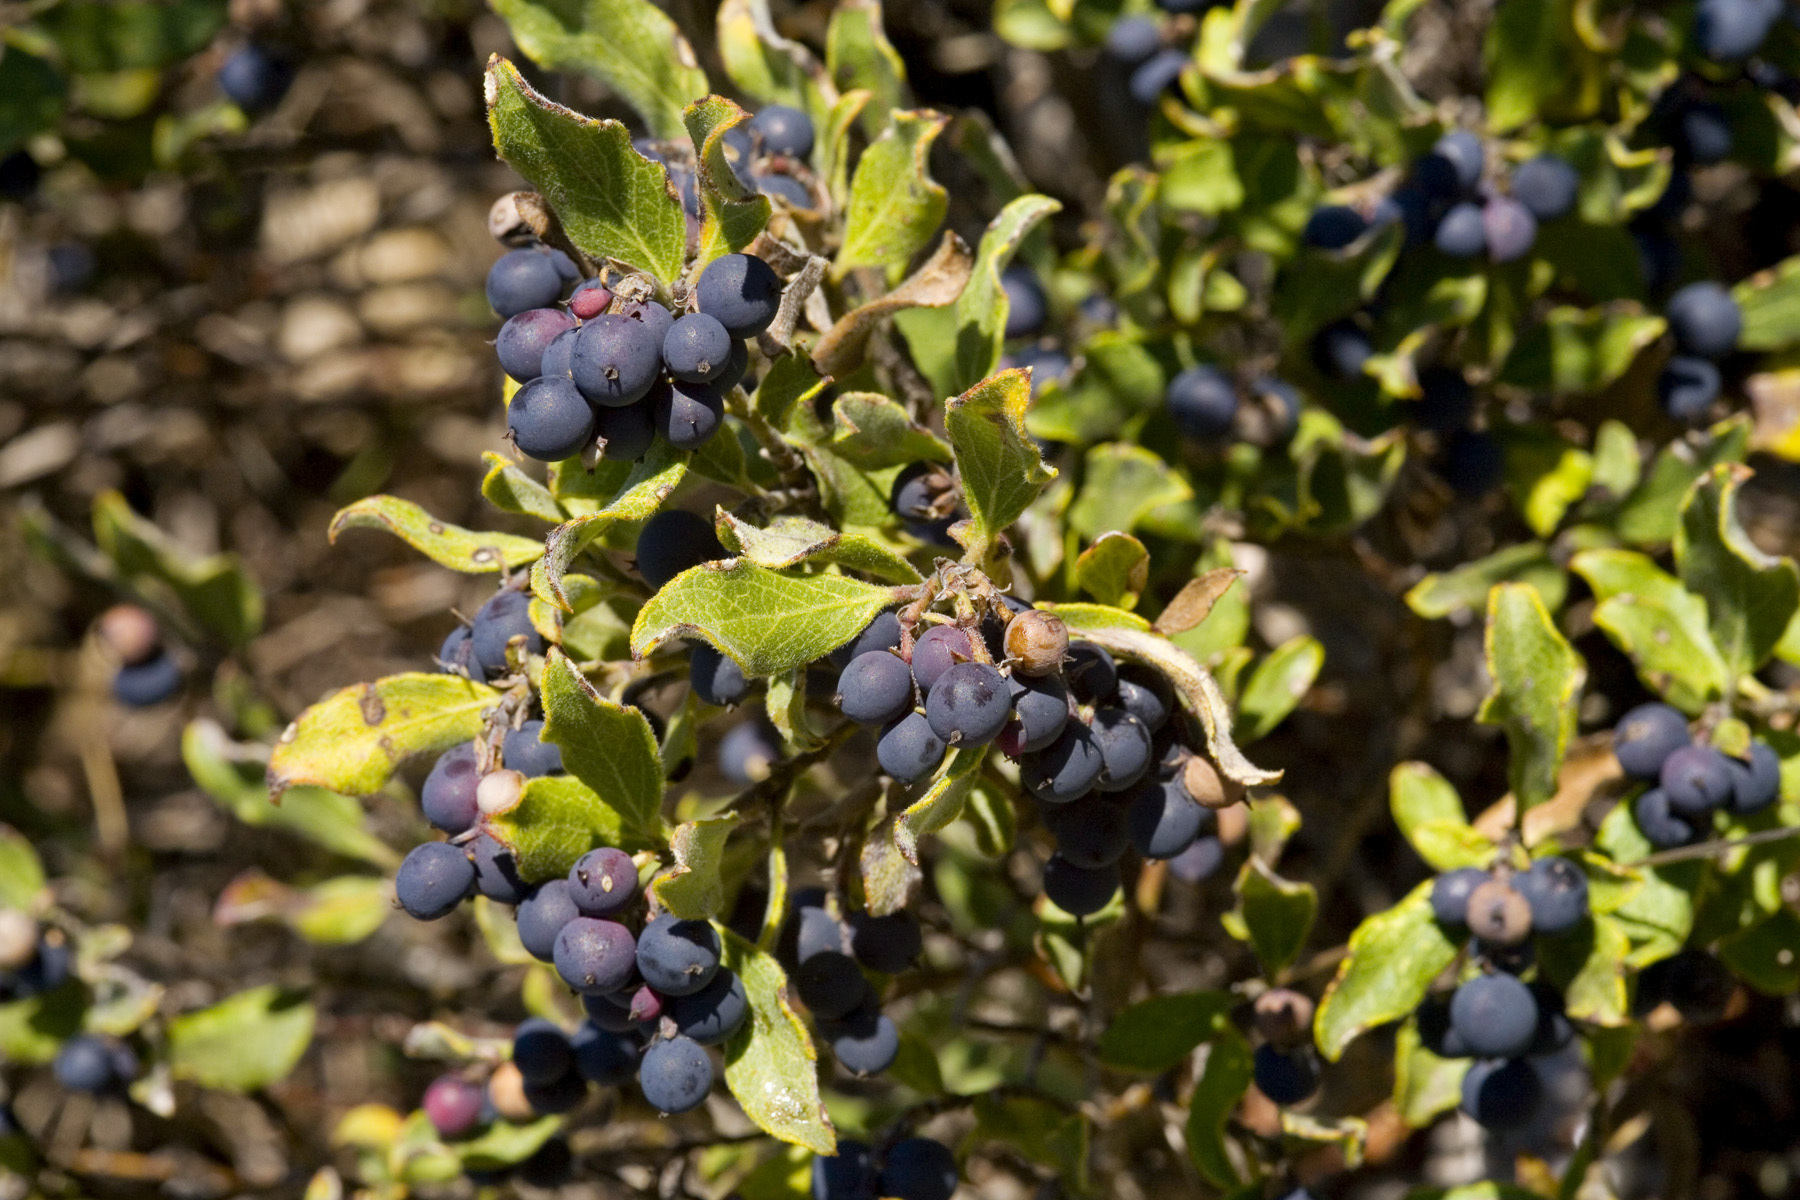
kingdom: Plantae
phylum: Tracheophyta
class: Magnoliopsida
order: Garryales
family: Garryaceae
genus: Garrya
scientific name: Garrya goldmanii
